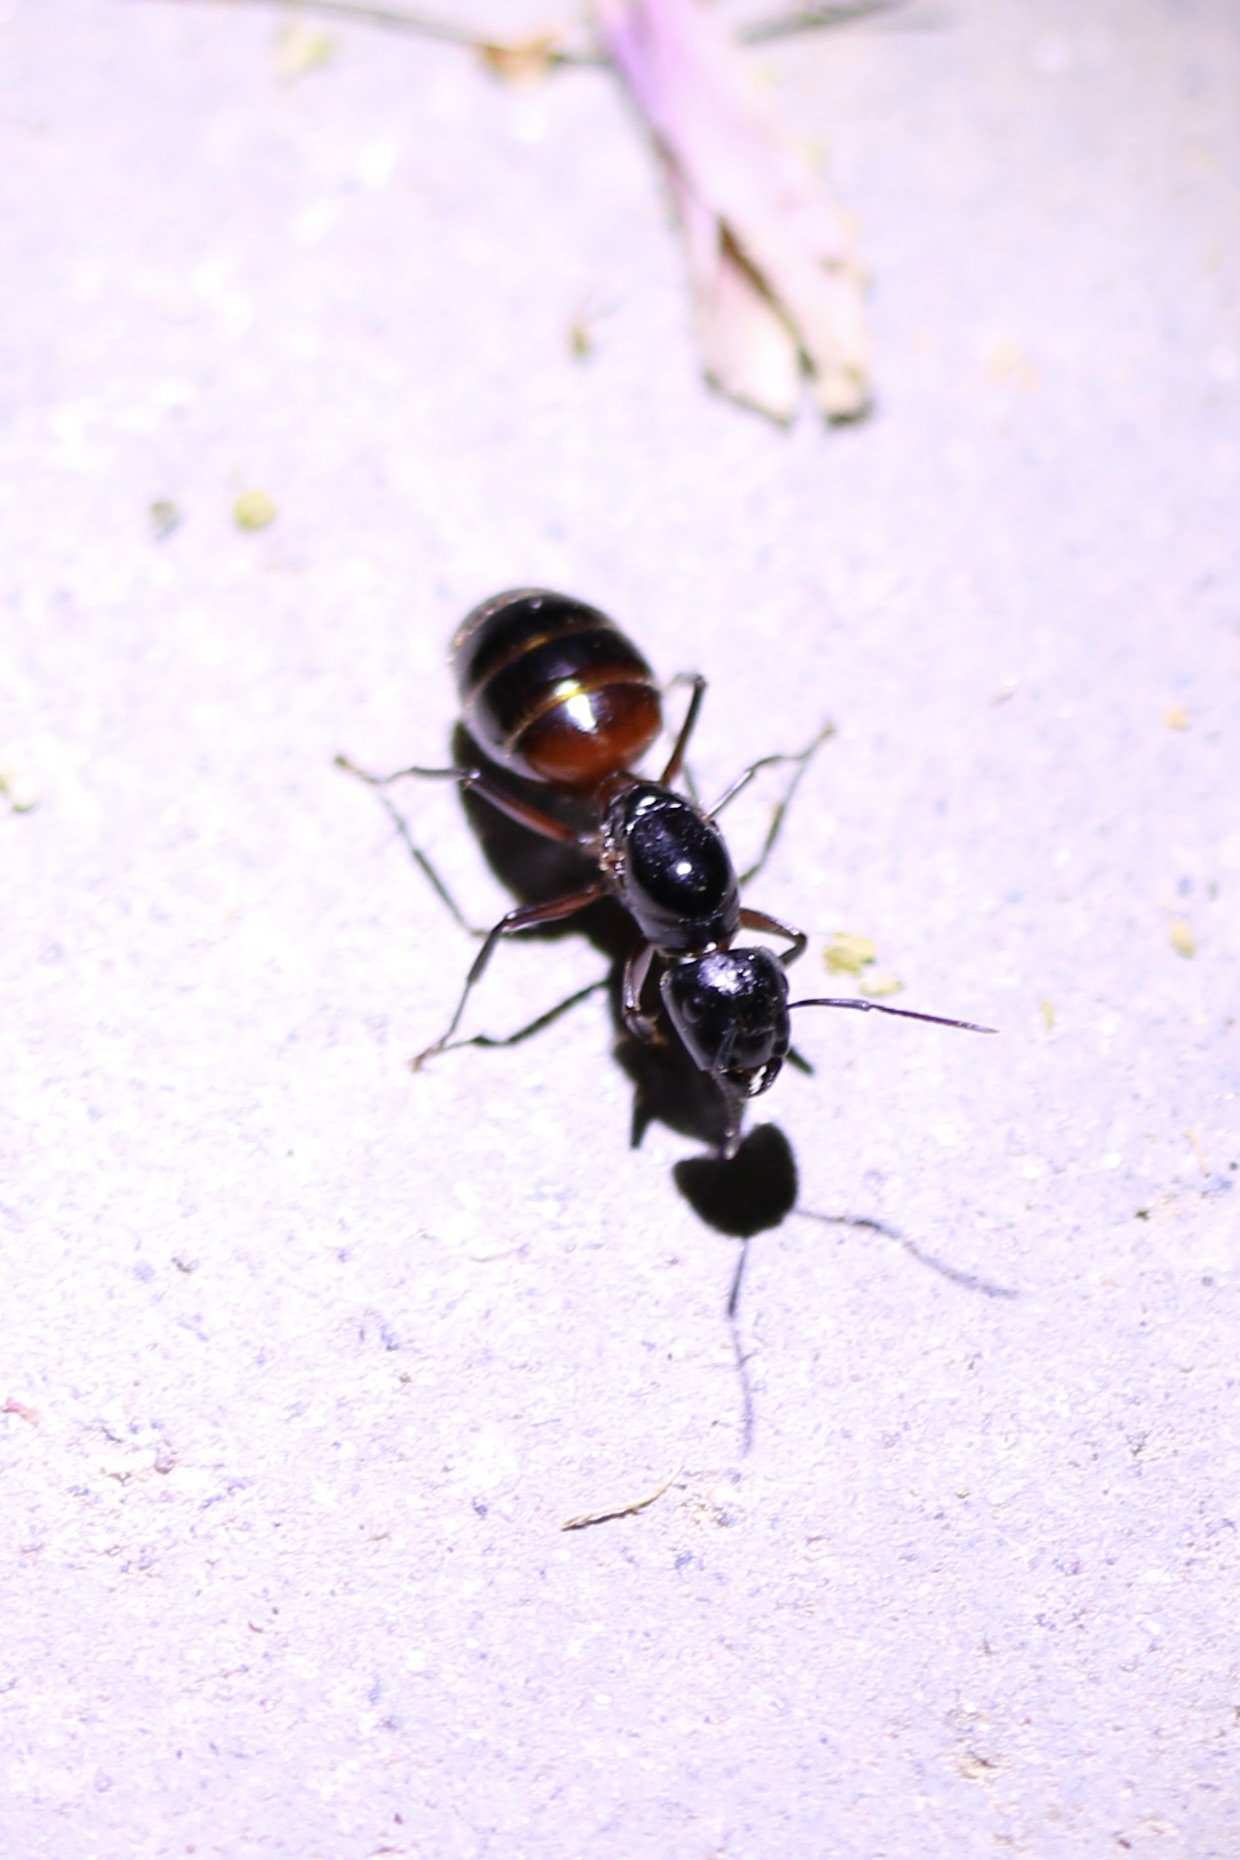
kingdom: Animalia
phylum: Arthropoda
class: Insecta
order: Hymenoptera
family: Formicidae
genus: Camponotus
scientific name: Camponotus ligniperdus
